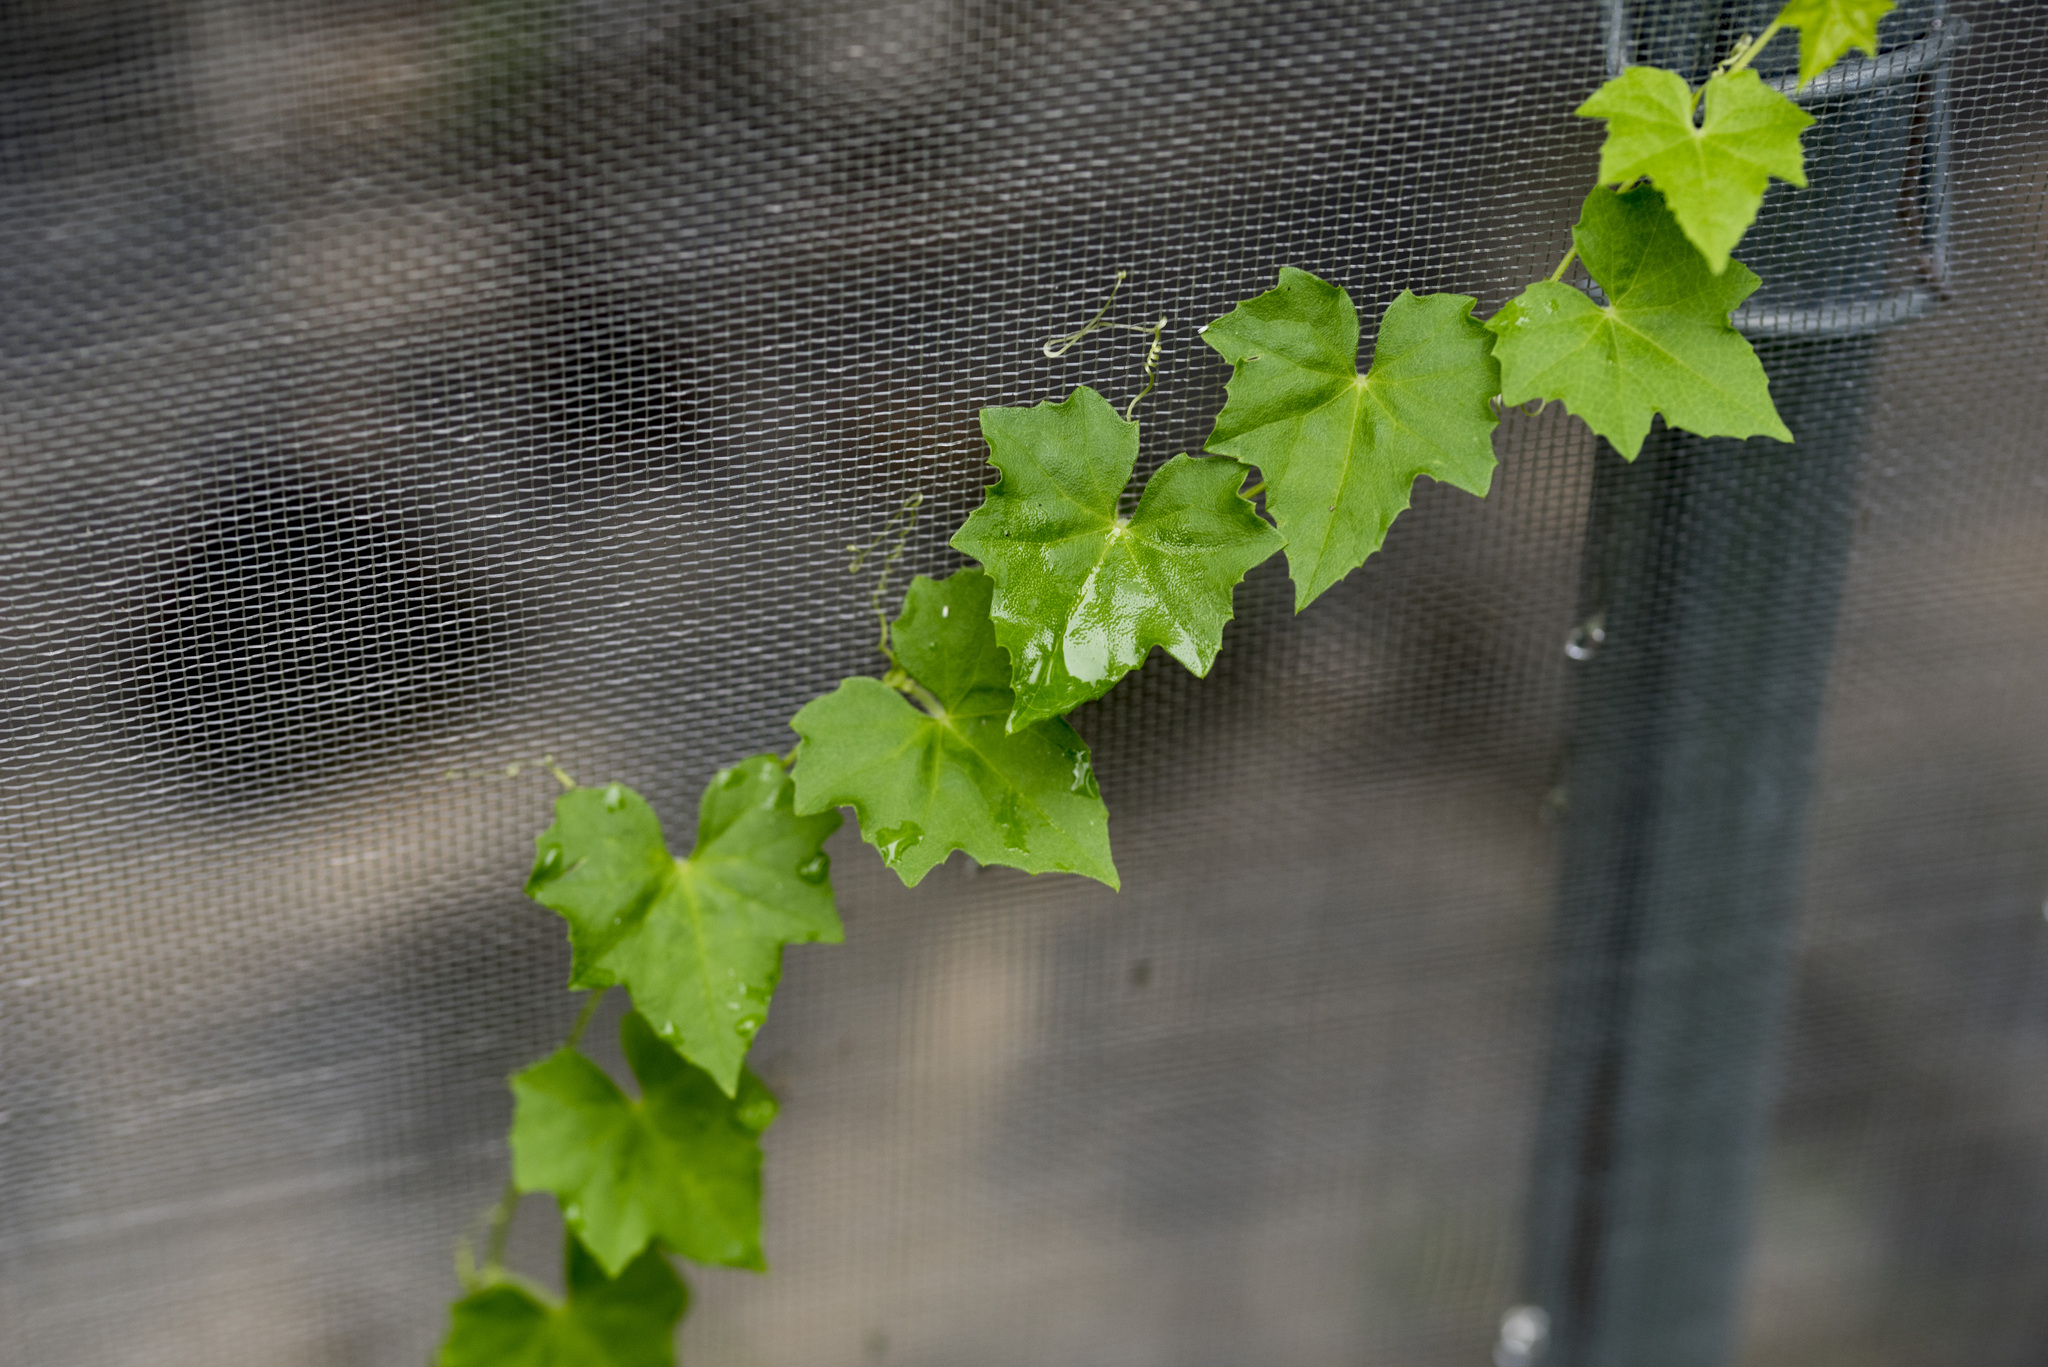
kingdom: Plantae
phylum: Tracheophyta
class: Magnoliopsida
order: Cucurbitales
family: Cucurbitaceae
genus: Melothria
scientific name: Melothria pendula
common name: Creeping-cucumber
